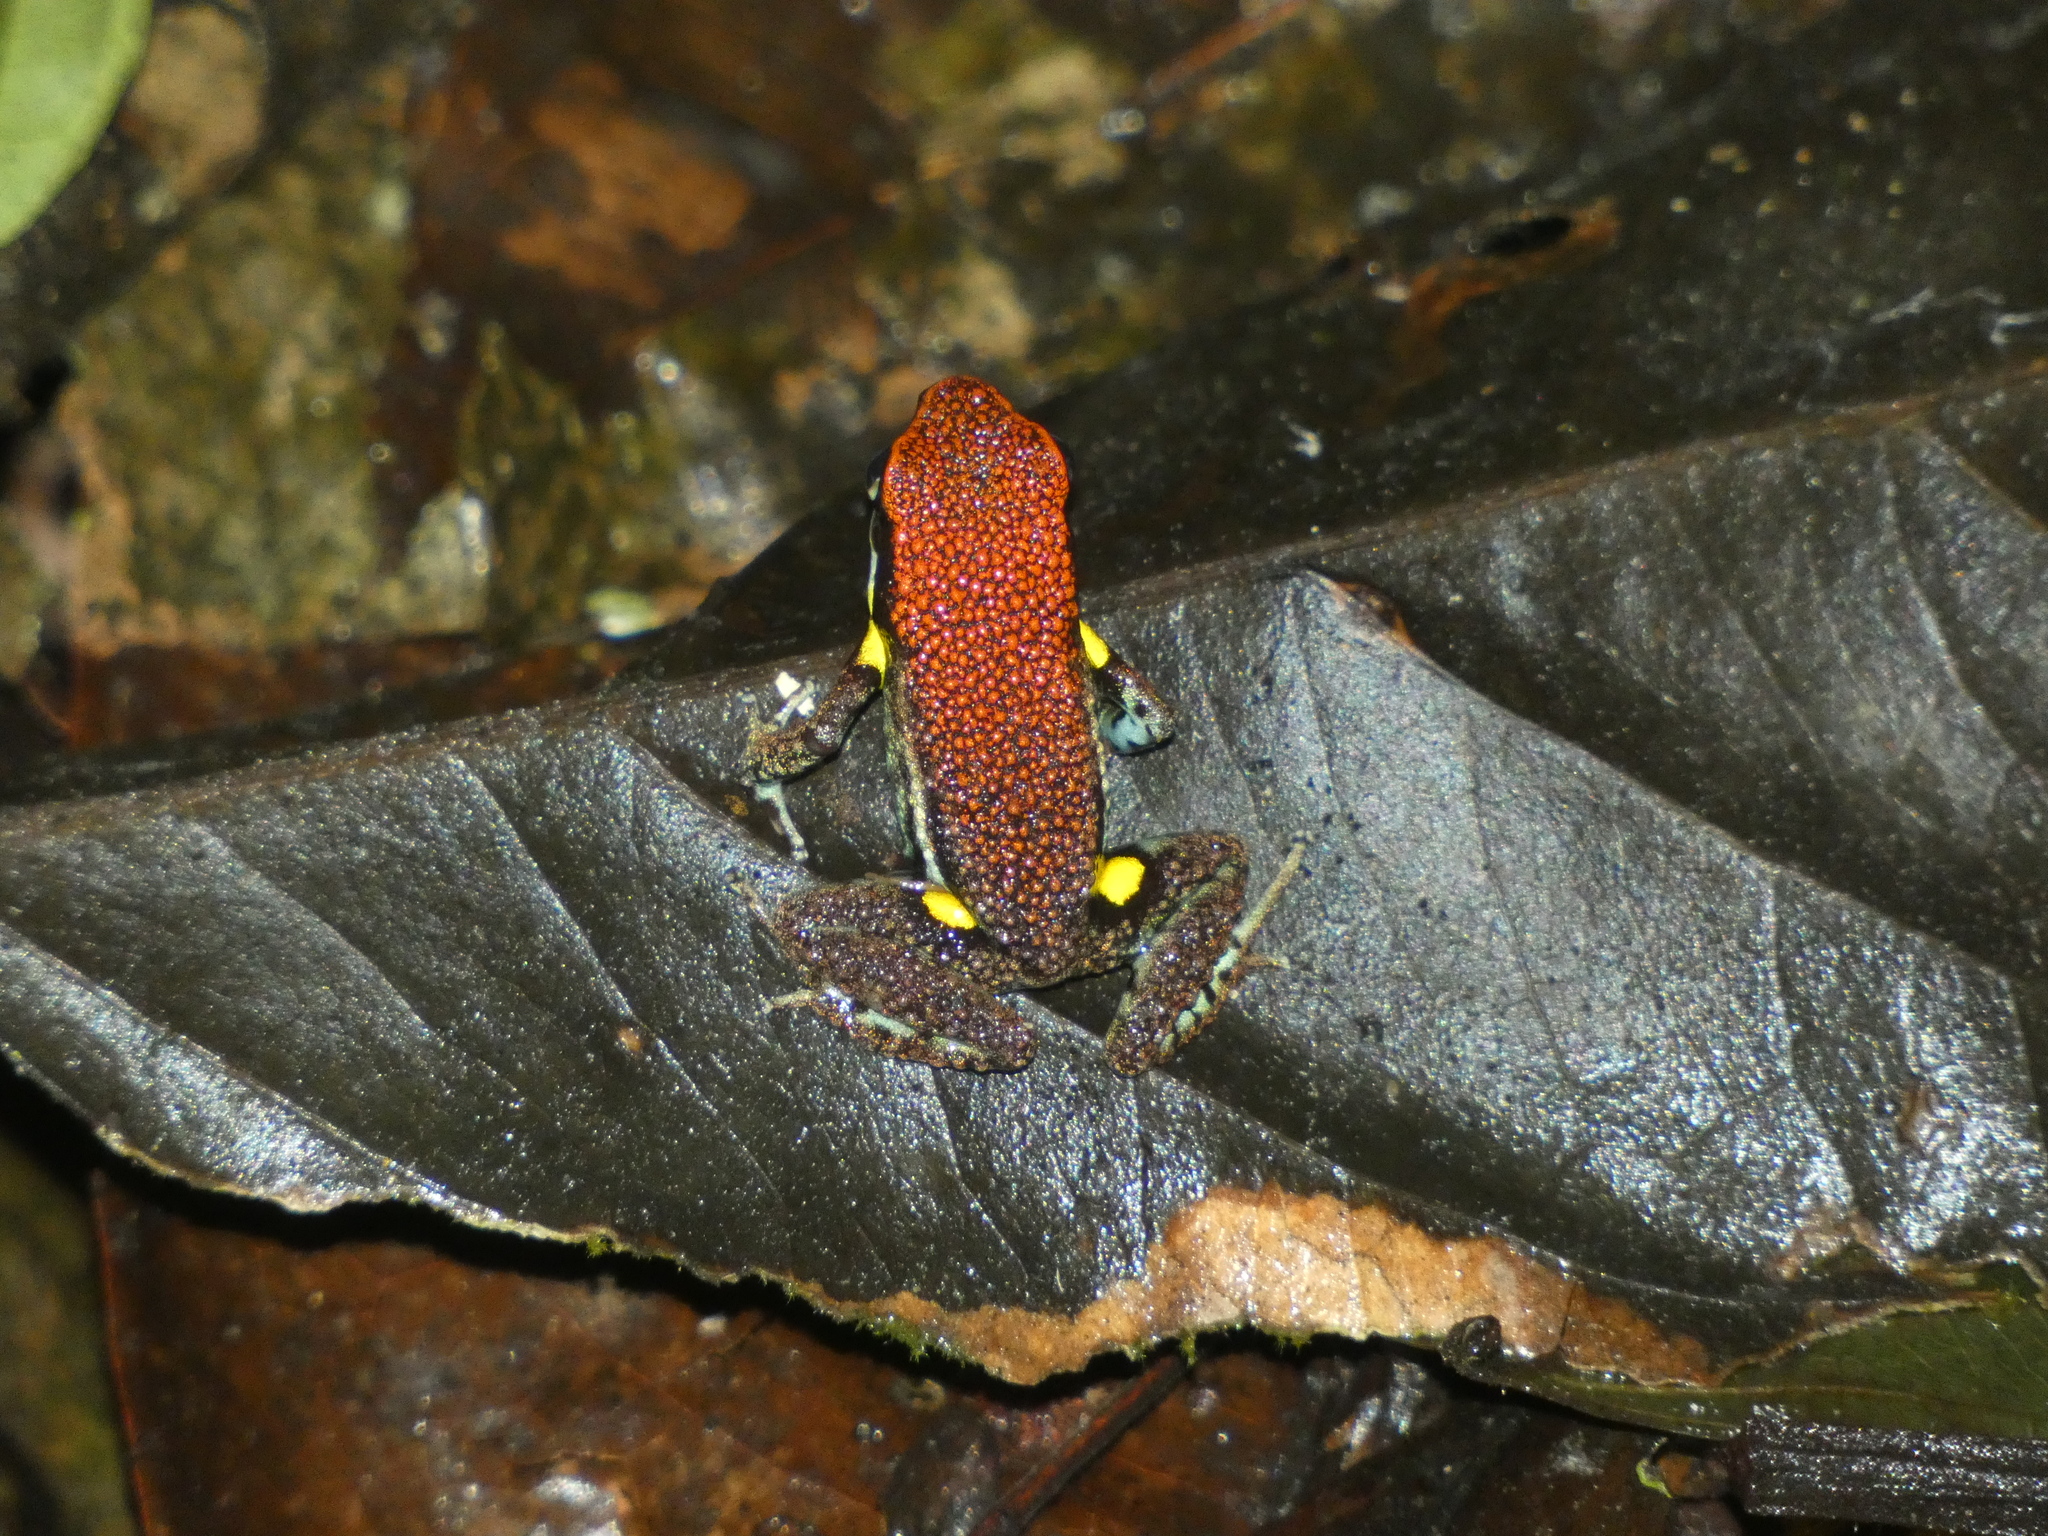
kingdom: Animalia
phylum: Chordata
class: Amphibia
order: Anura
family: Dendrobatidae
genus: Ameerega
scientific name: Ameerega bilinguis
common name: Ecuadorean poison frog
